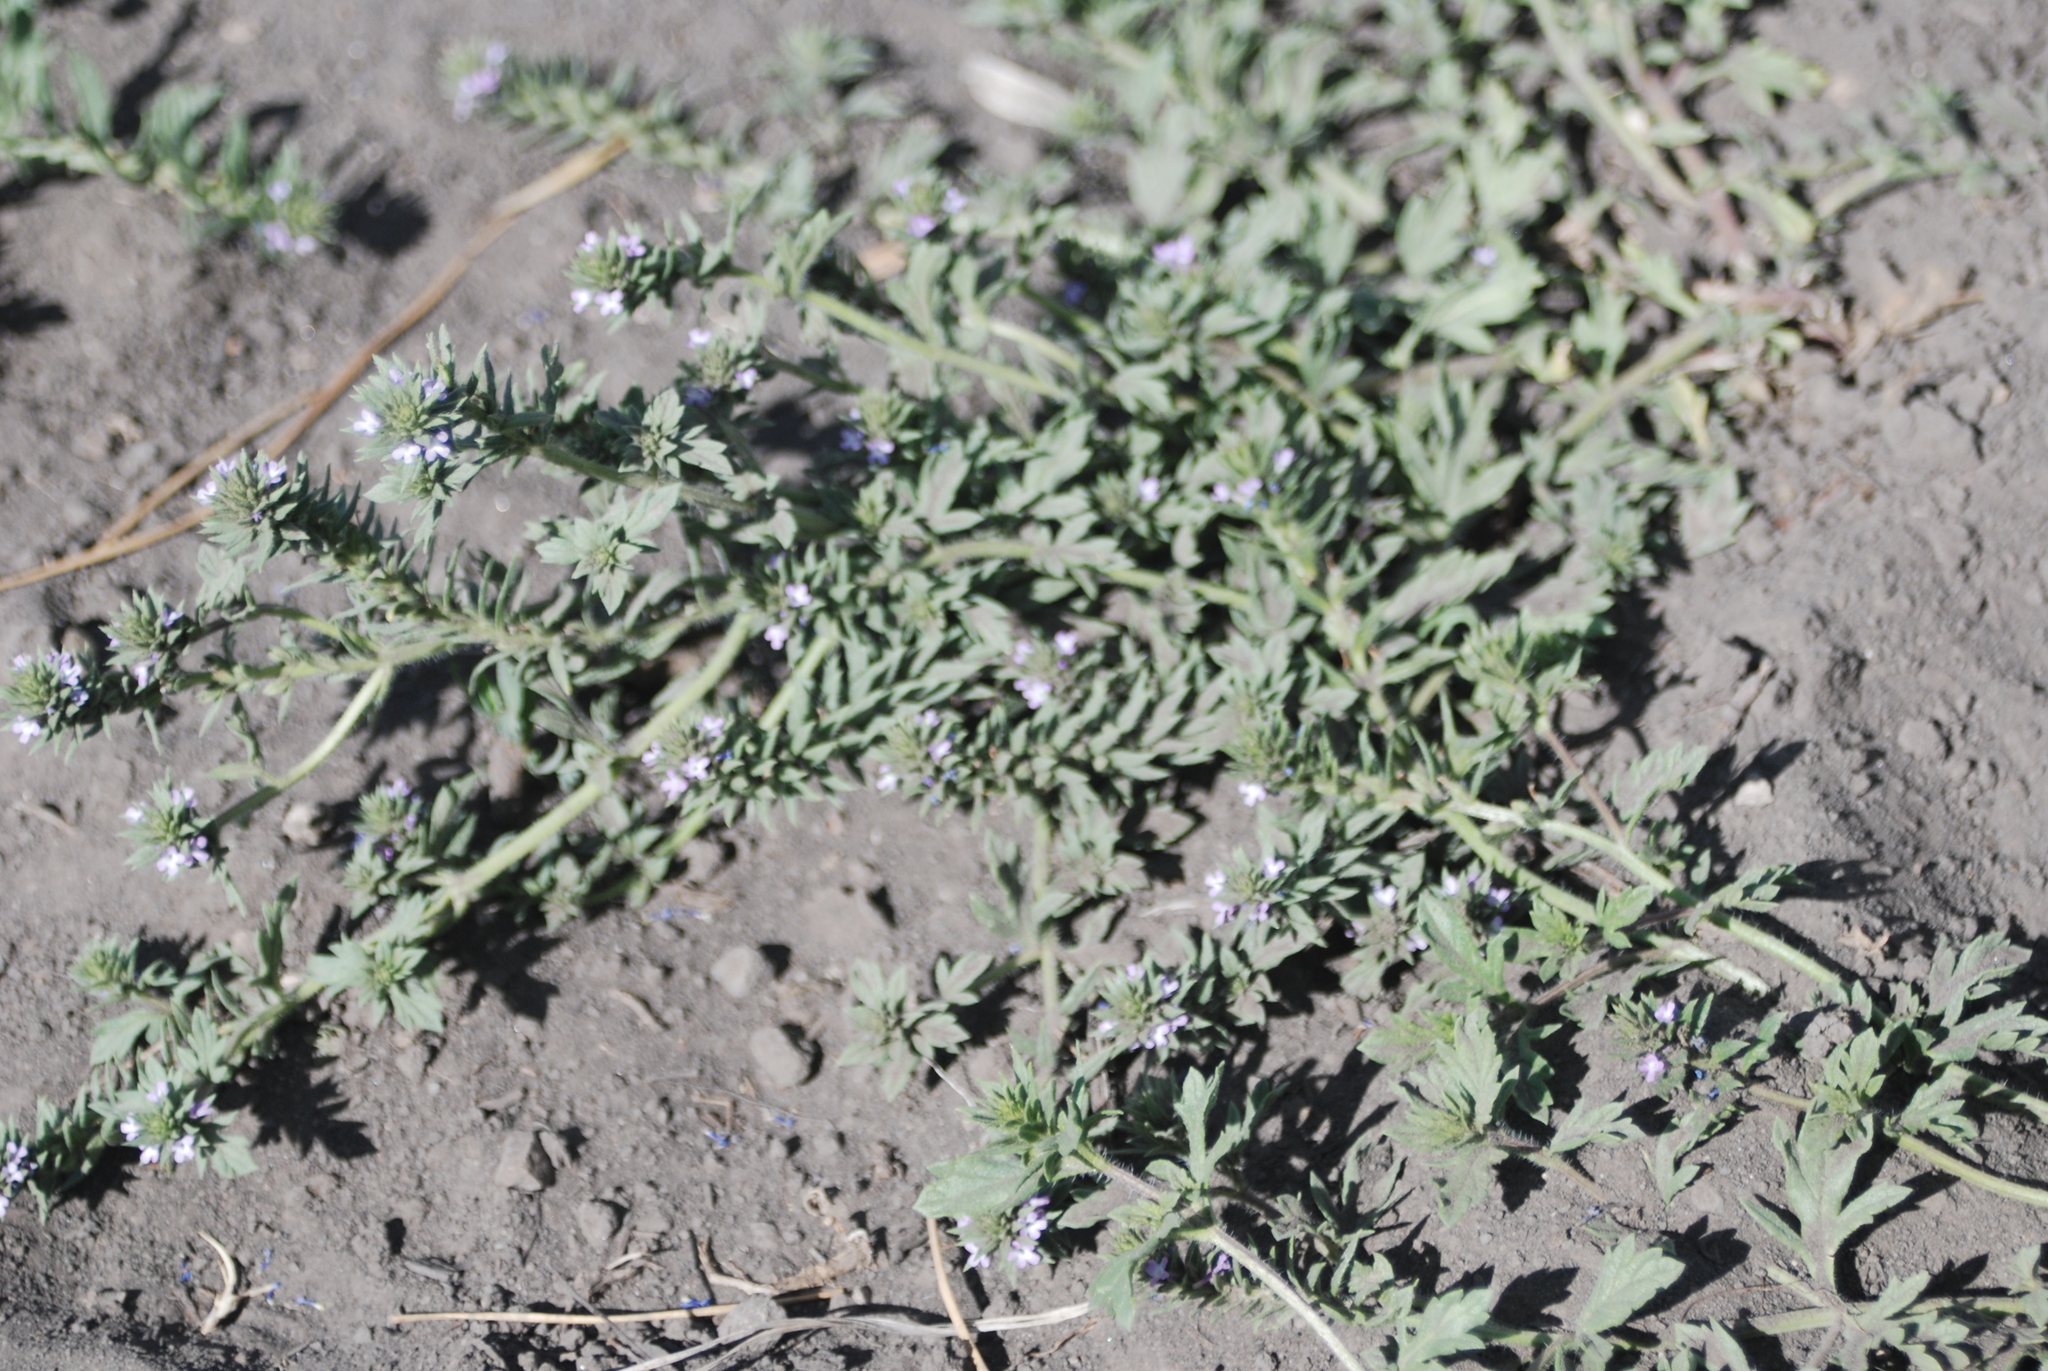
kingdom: Plantae
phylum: Tracheophyta
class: Magnoliopsida
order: Lamiales
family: Verbenaceae
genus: Verbena
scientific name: Verbena bracteata
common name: Bracted vervain
